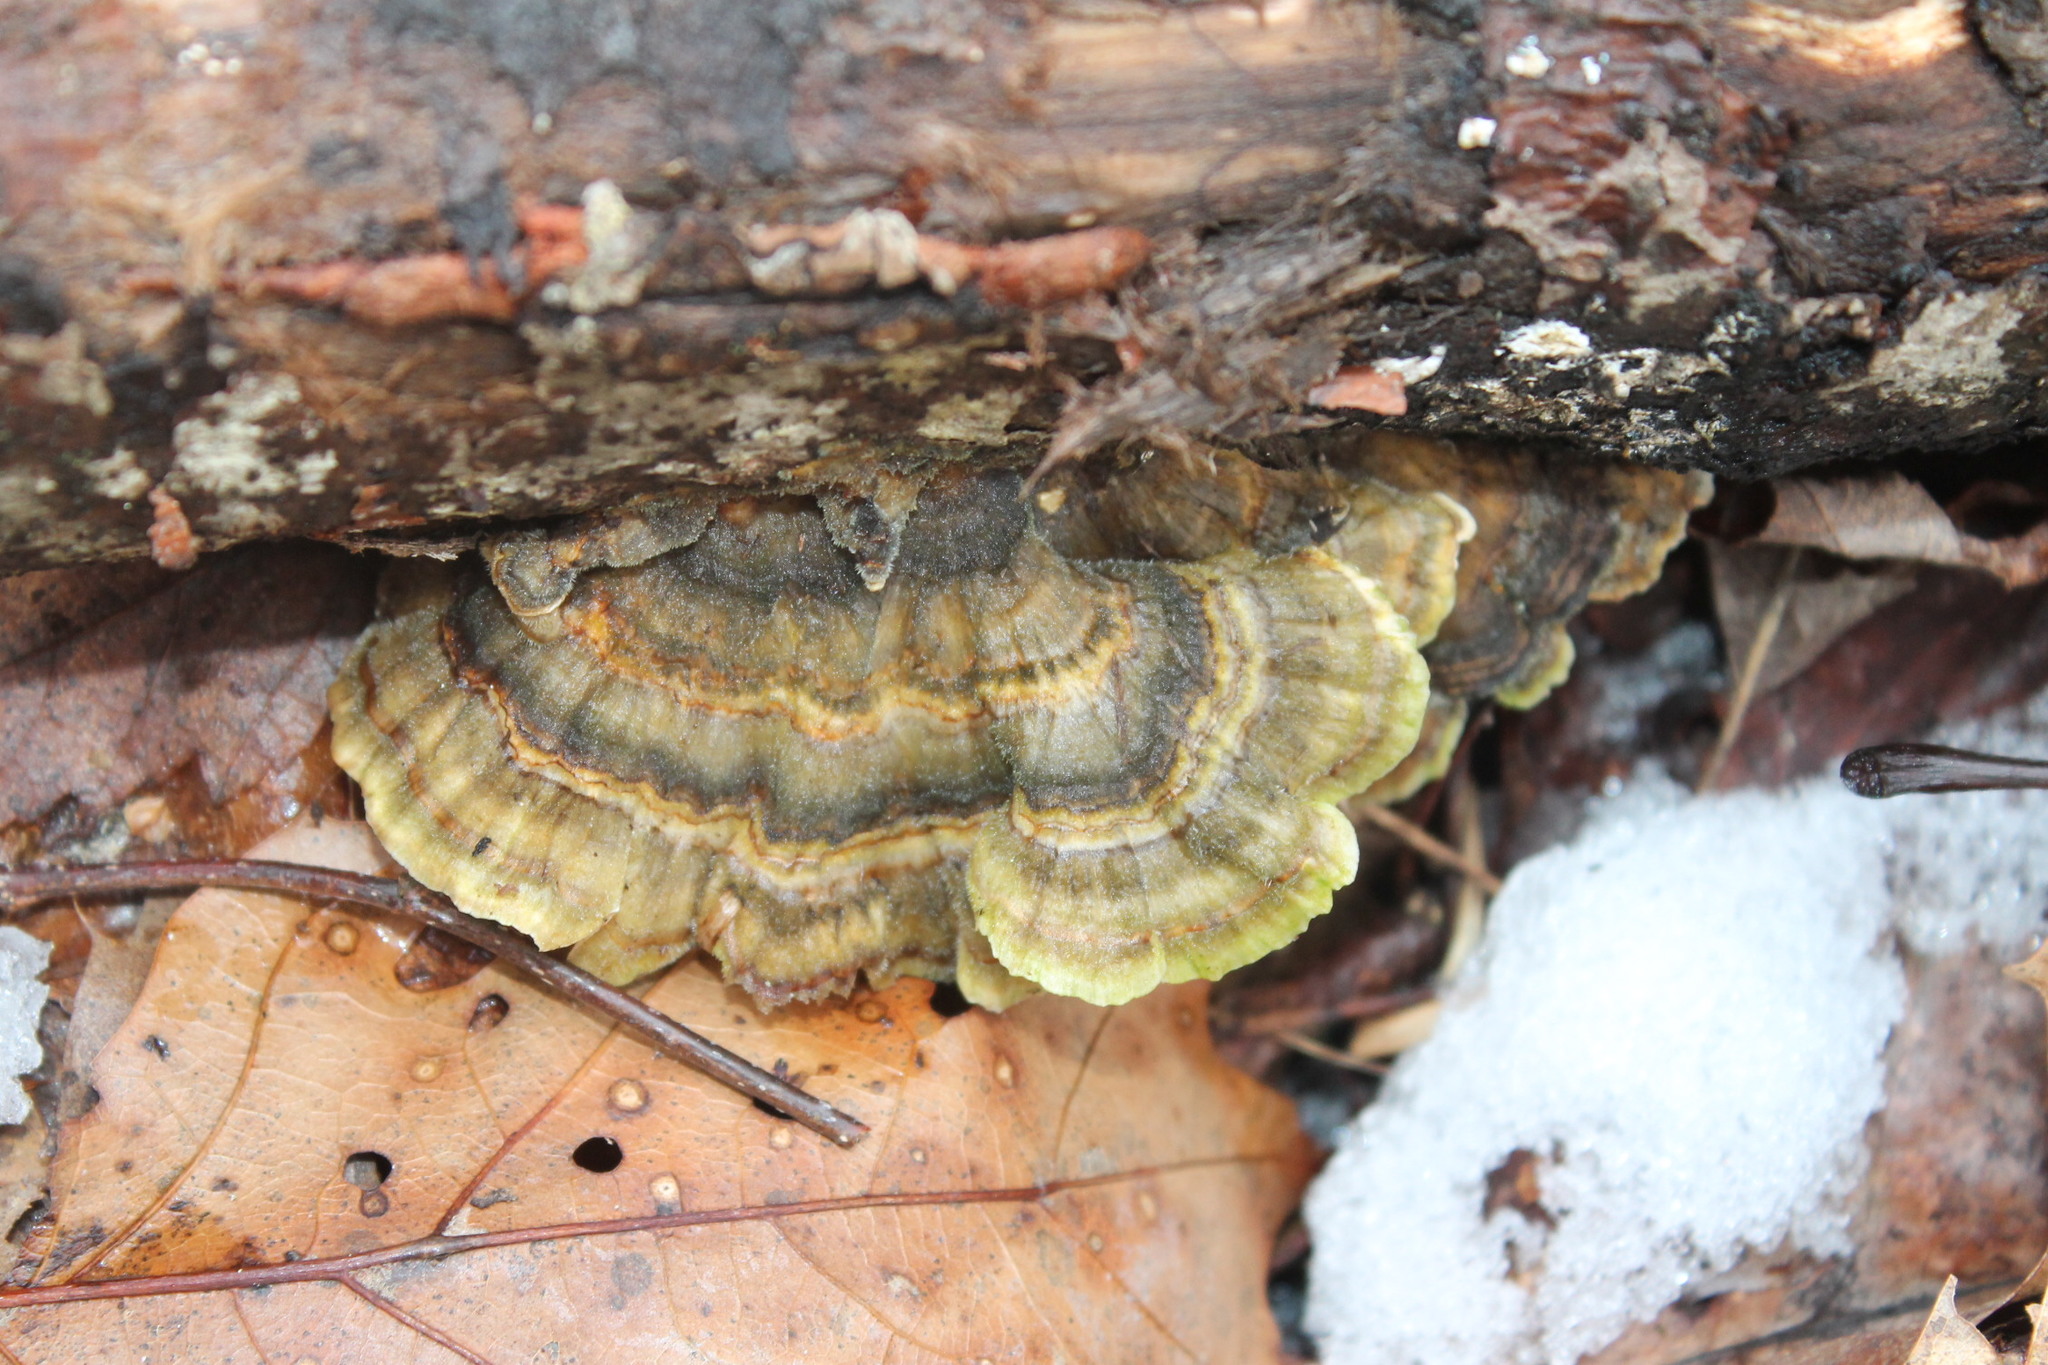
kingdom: Fungi
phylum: Basidiomycota
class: Agaricomycetes
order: Polyporales
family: Polyporaceae
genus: Trametes
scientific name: Trametes versicolor
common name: Turkeytail
